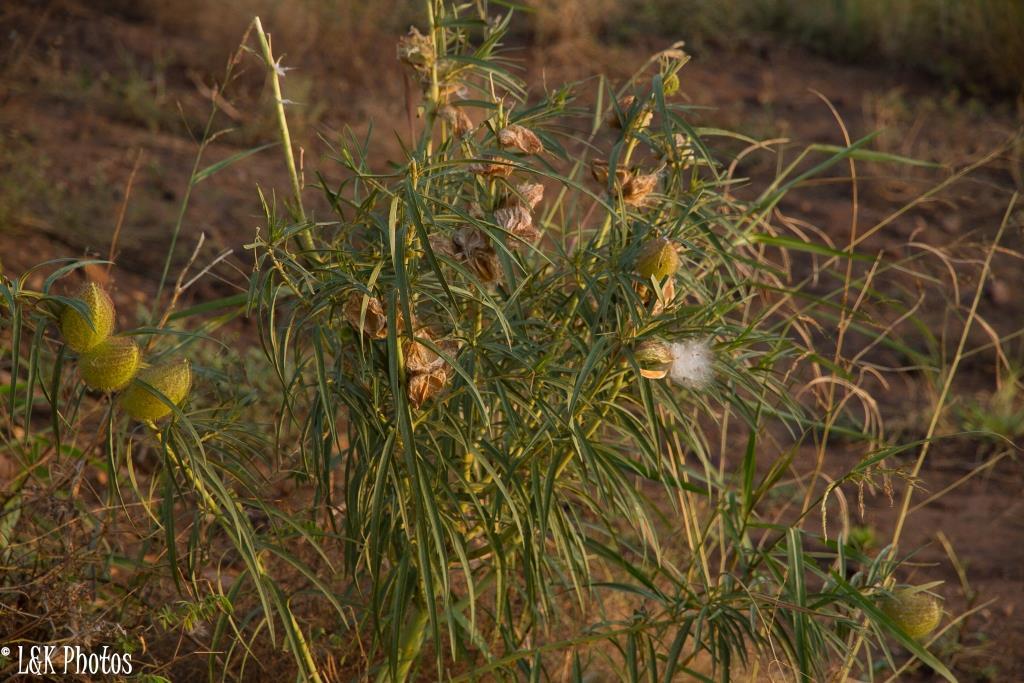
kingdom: Plantae
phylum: Tracheophyta
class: Magnoliopsida
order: Gentianales
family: Apocynaceae
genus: Gomphocarpus
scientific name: Gomphocarpus fruticosus
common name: Milkweed
